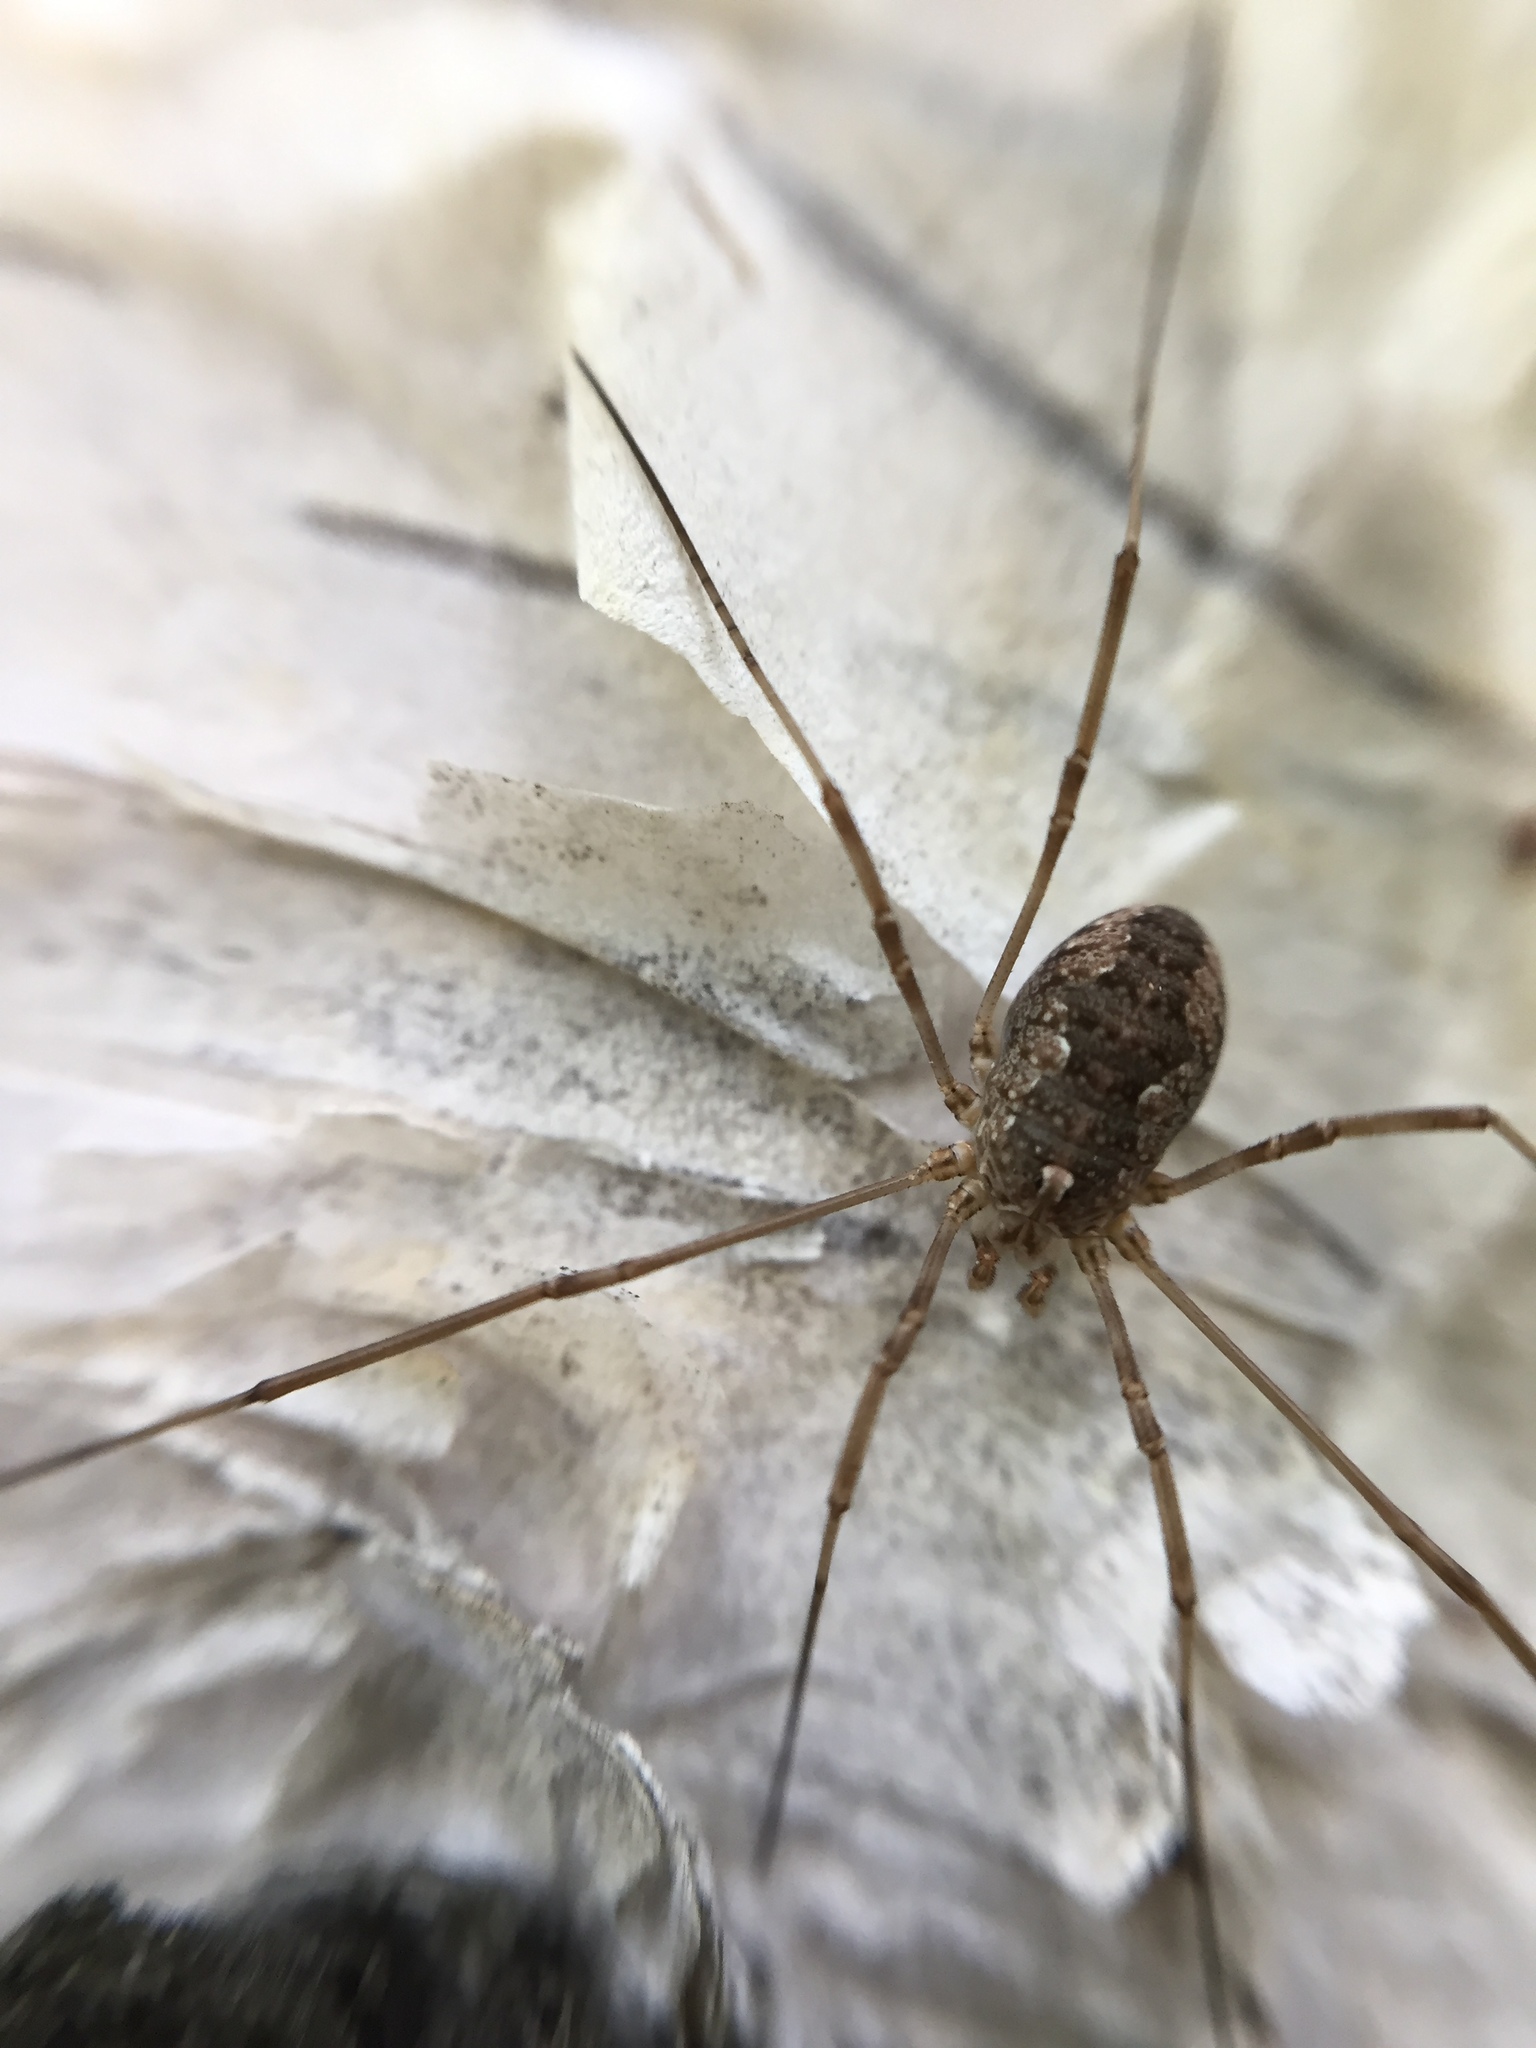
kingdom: Animalia
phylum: Arthropoda
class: Arachnida
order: Opiliones
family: Phalangiidae
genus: Phalangium
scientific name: Phalangium opilio
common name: Daddy longleg
